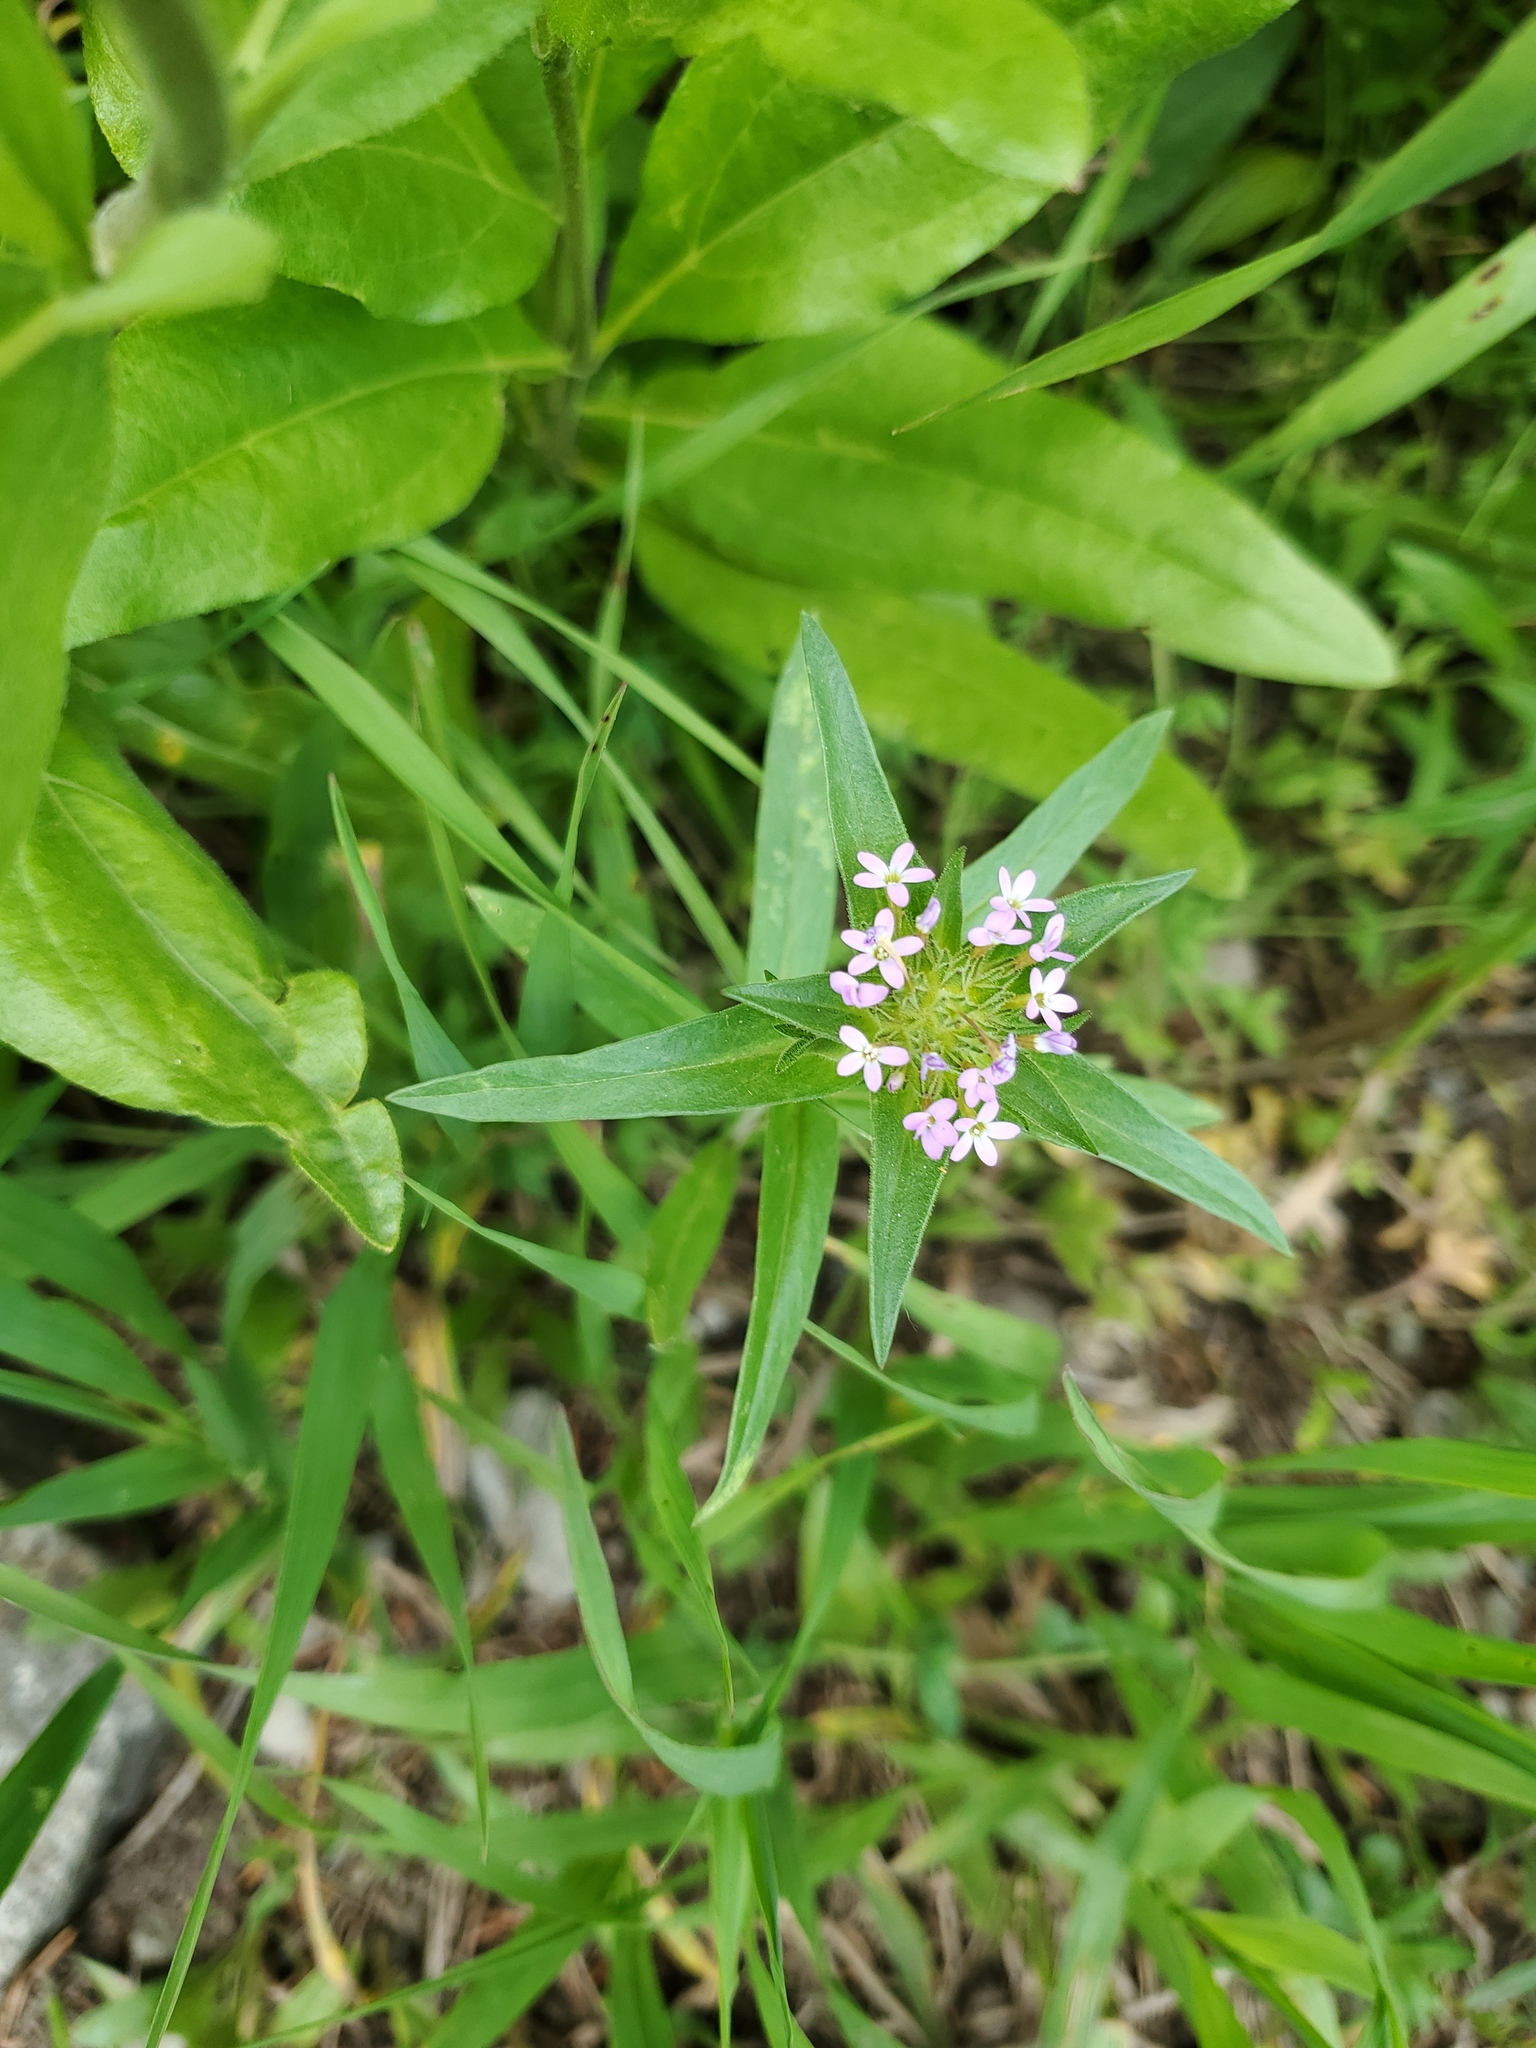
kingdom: Plantae
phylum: Tracheophyta
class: Magnoliopsida
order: Ericales
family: Polemoniaceae
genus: Collomia
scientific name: Collomia linearis
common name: Tiny trumpet
